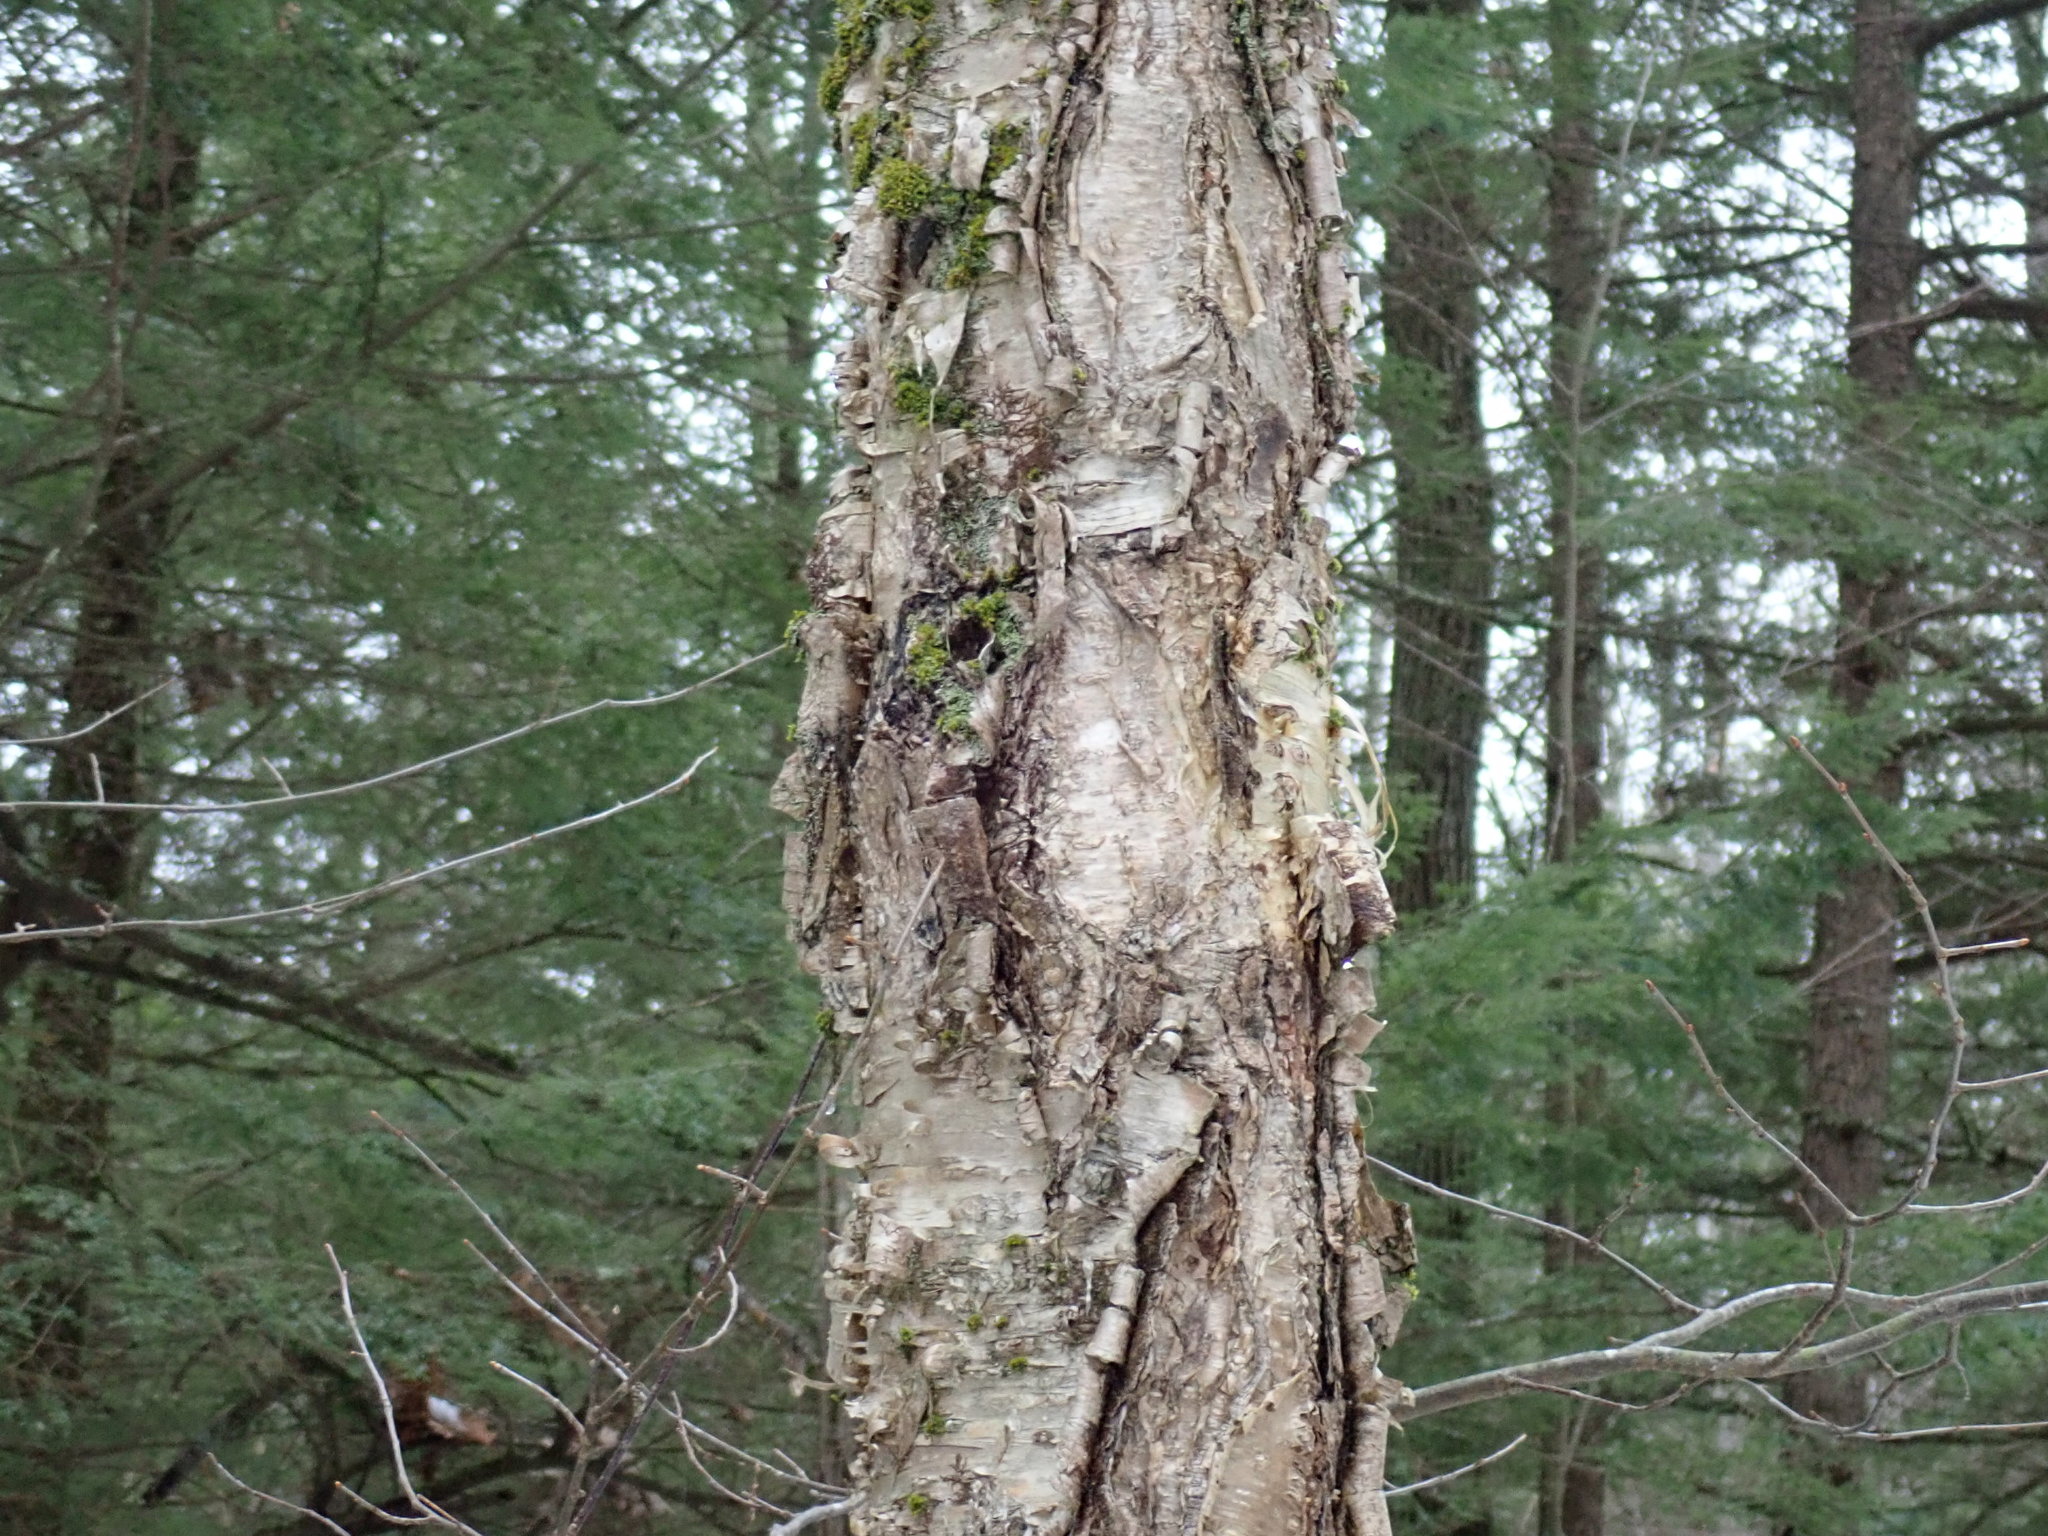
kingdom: Plantae
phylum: Tracheophyta
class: Magnoliopsida
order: Fagales
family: Betulaceae
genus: Betula
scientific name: Betula alleghaniensis
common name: Yellow birch
